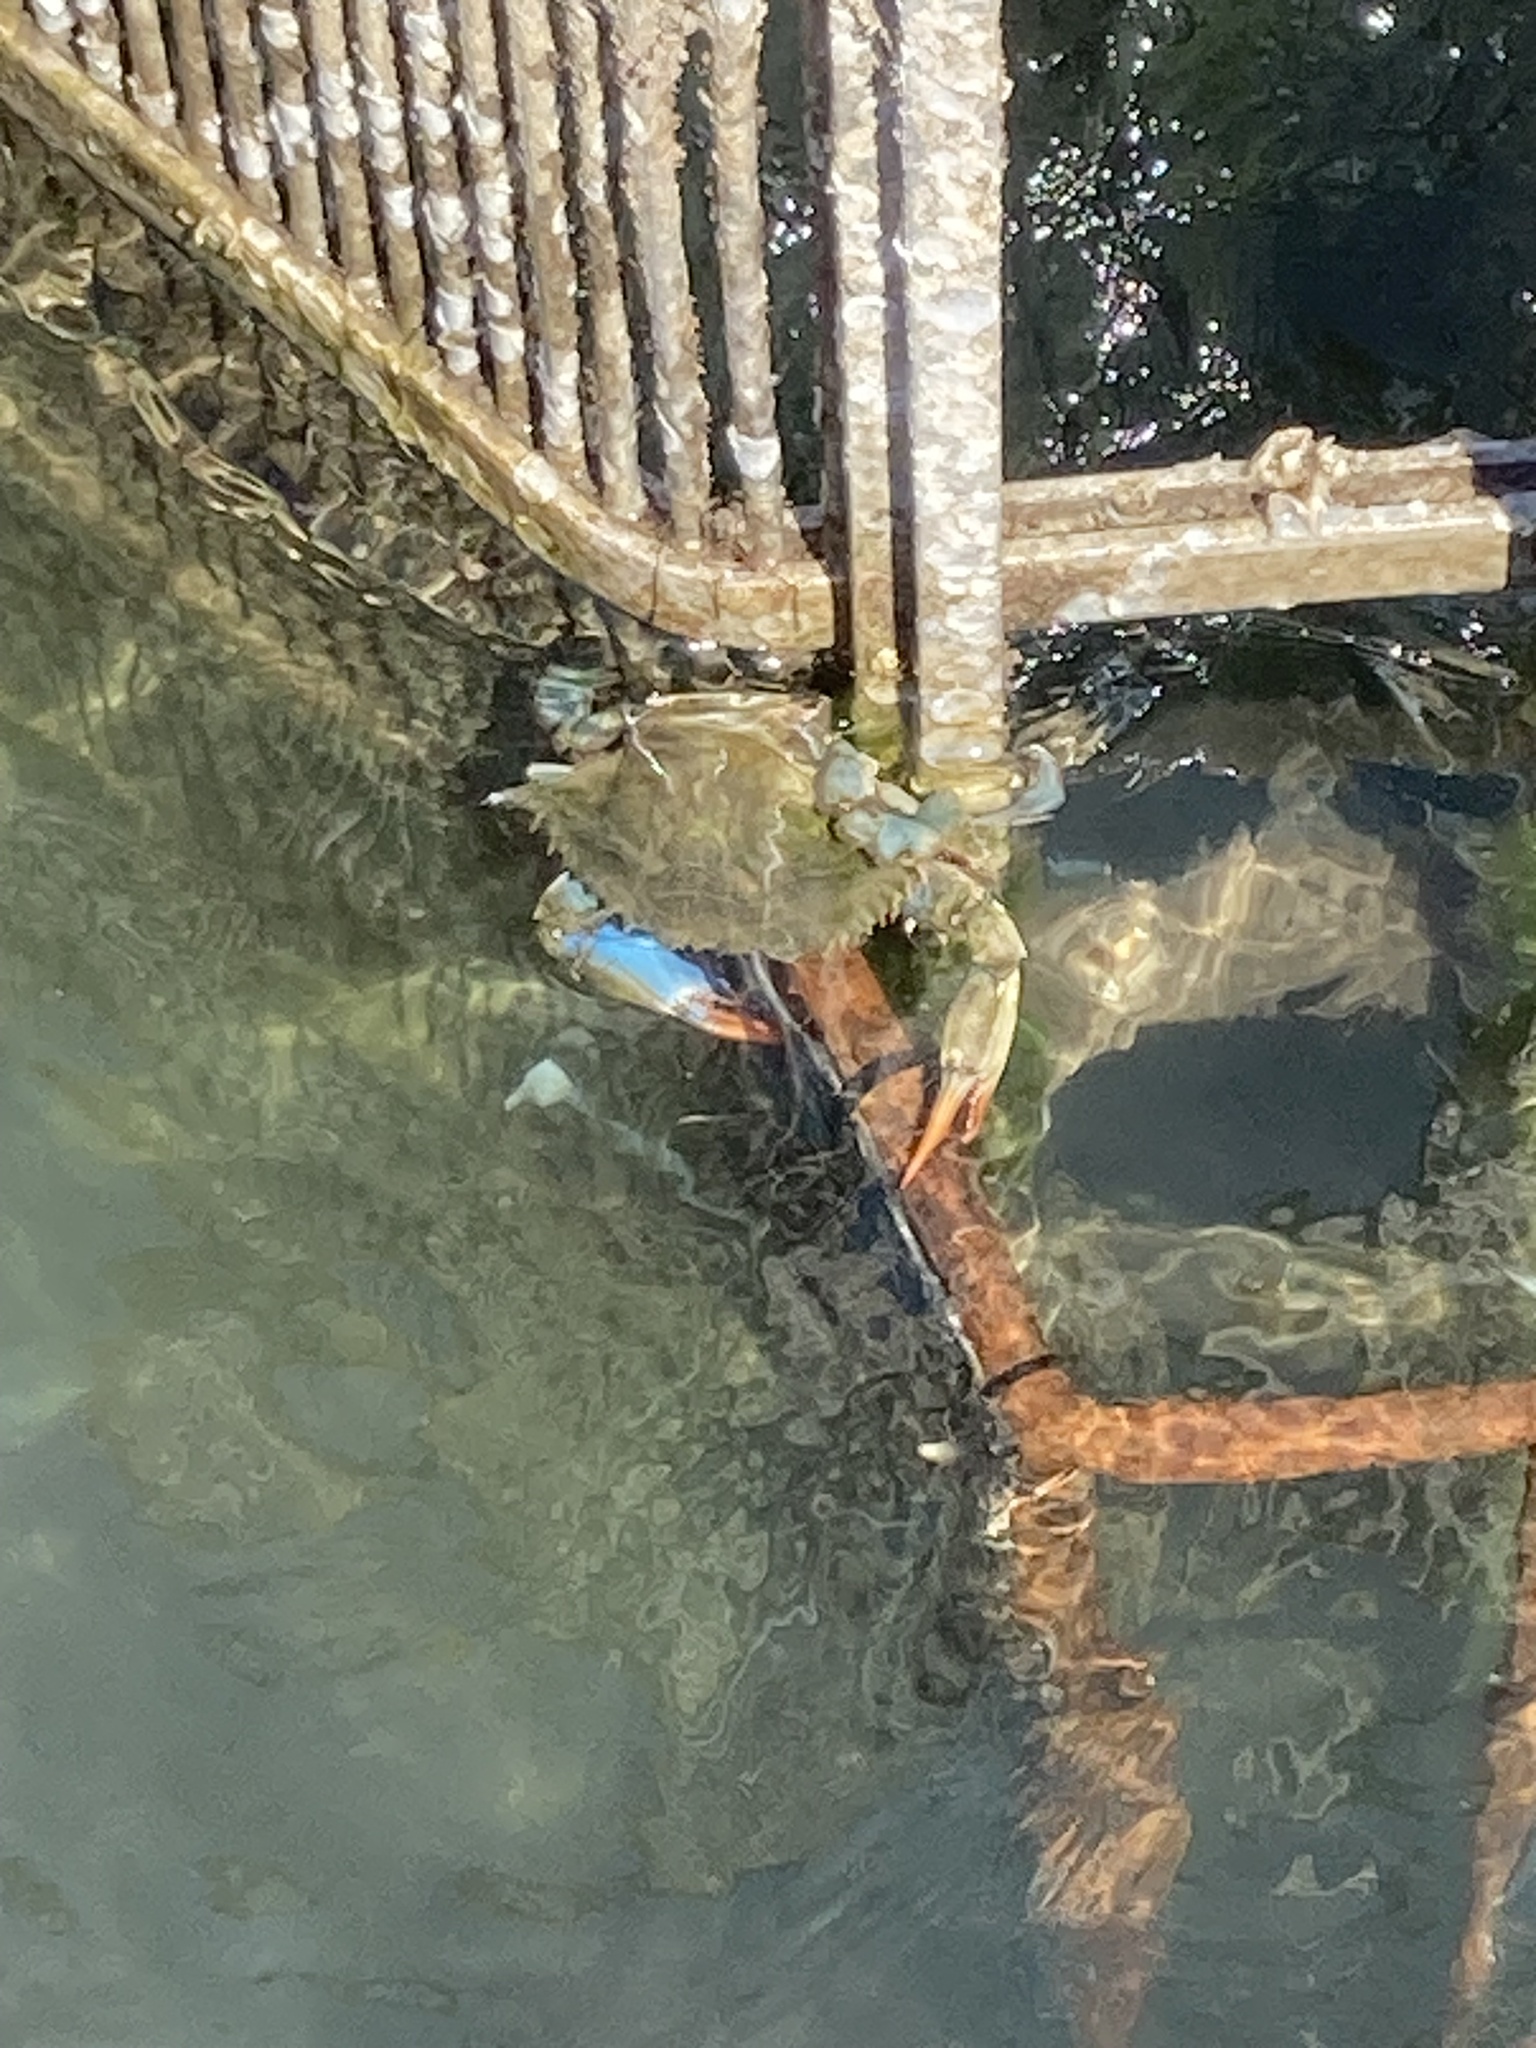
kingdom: Animalia
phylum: Arthropoda
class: Malacostraca
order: Decapoda
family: Portunidae
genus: Callinectes
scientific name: Callinectes sapidus
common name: Blue crab
